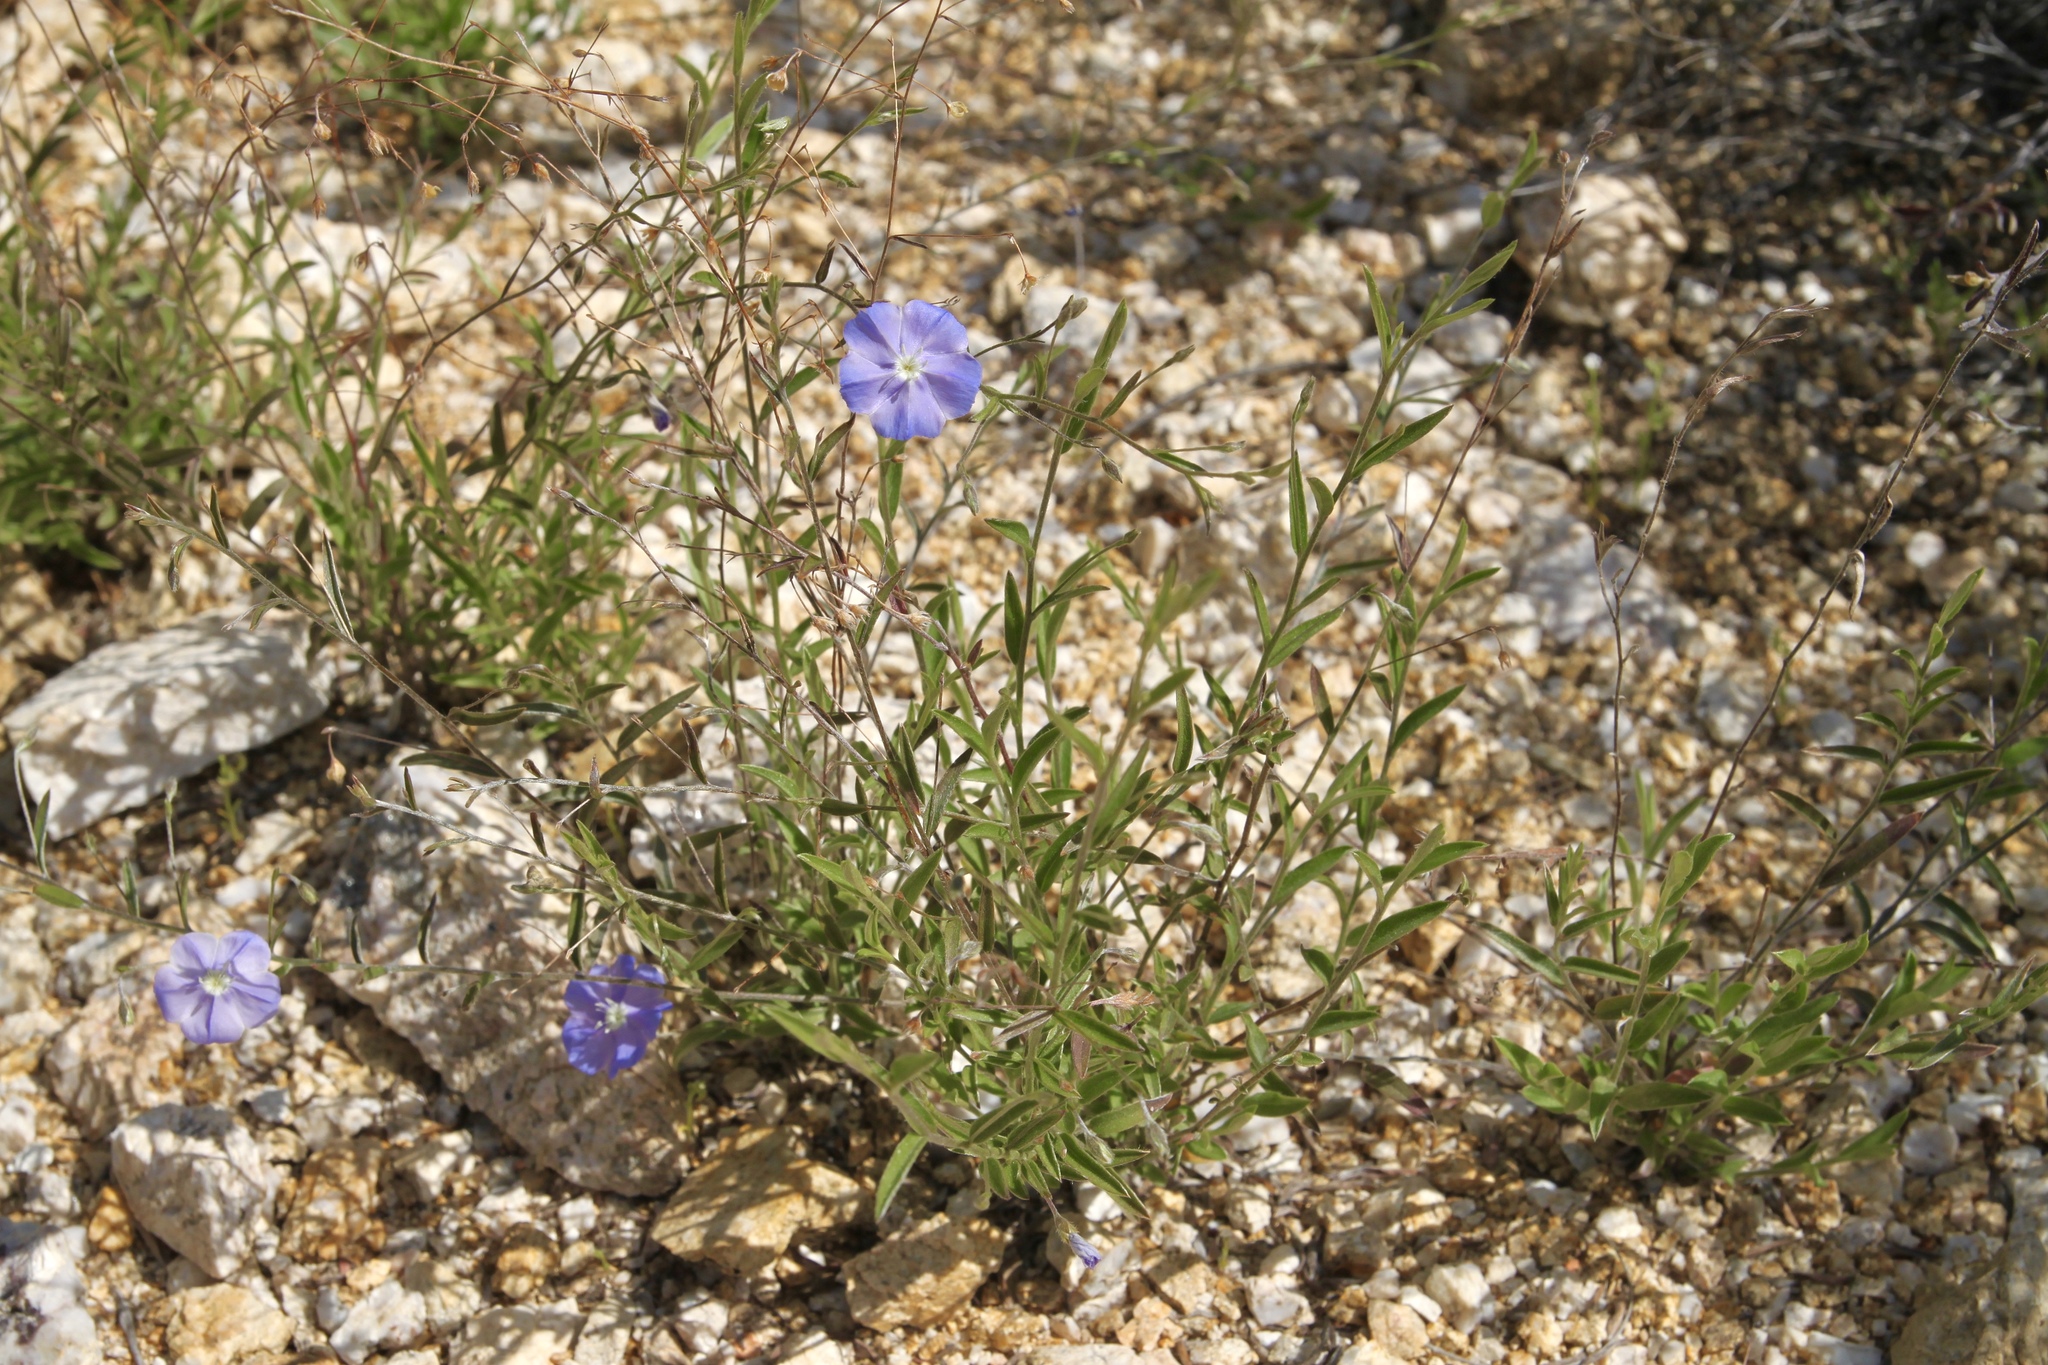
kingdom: Plantae
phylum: Tracheophyta
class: Magnoliopsida
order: Solanales
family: Convolvulaceae
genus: Evolvulus
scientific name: Evolvulus arizonicus
